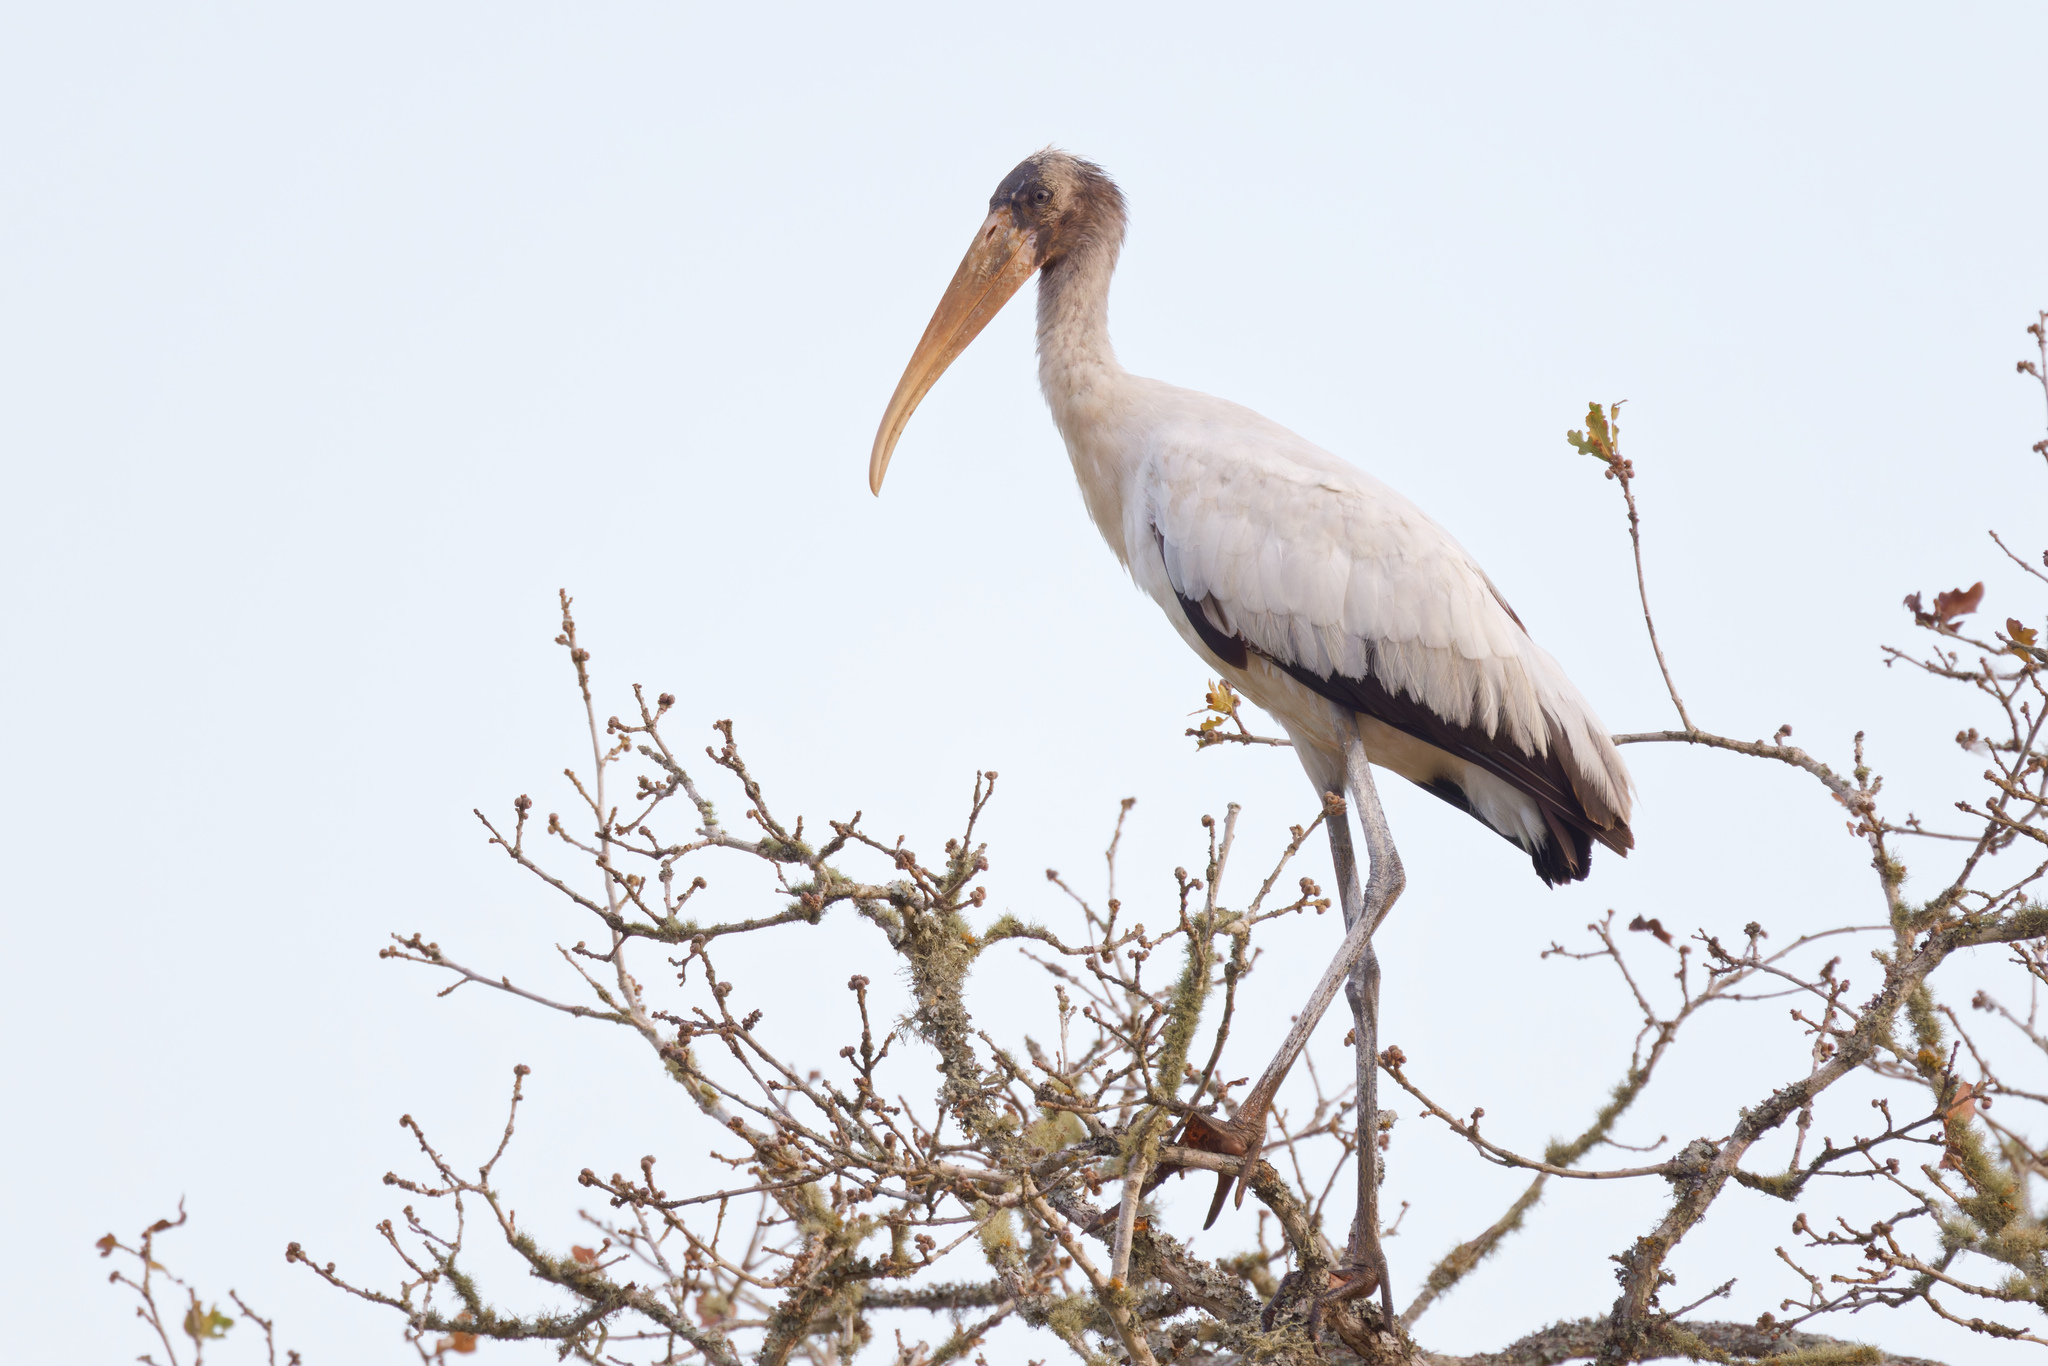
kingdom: Animalia
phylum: Chordata
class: Aves
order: Ciconiiformes
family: Ciconiidae
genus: Mycteria
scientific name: Mycteria americana
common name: Wood stork
